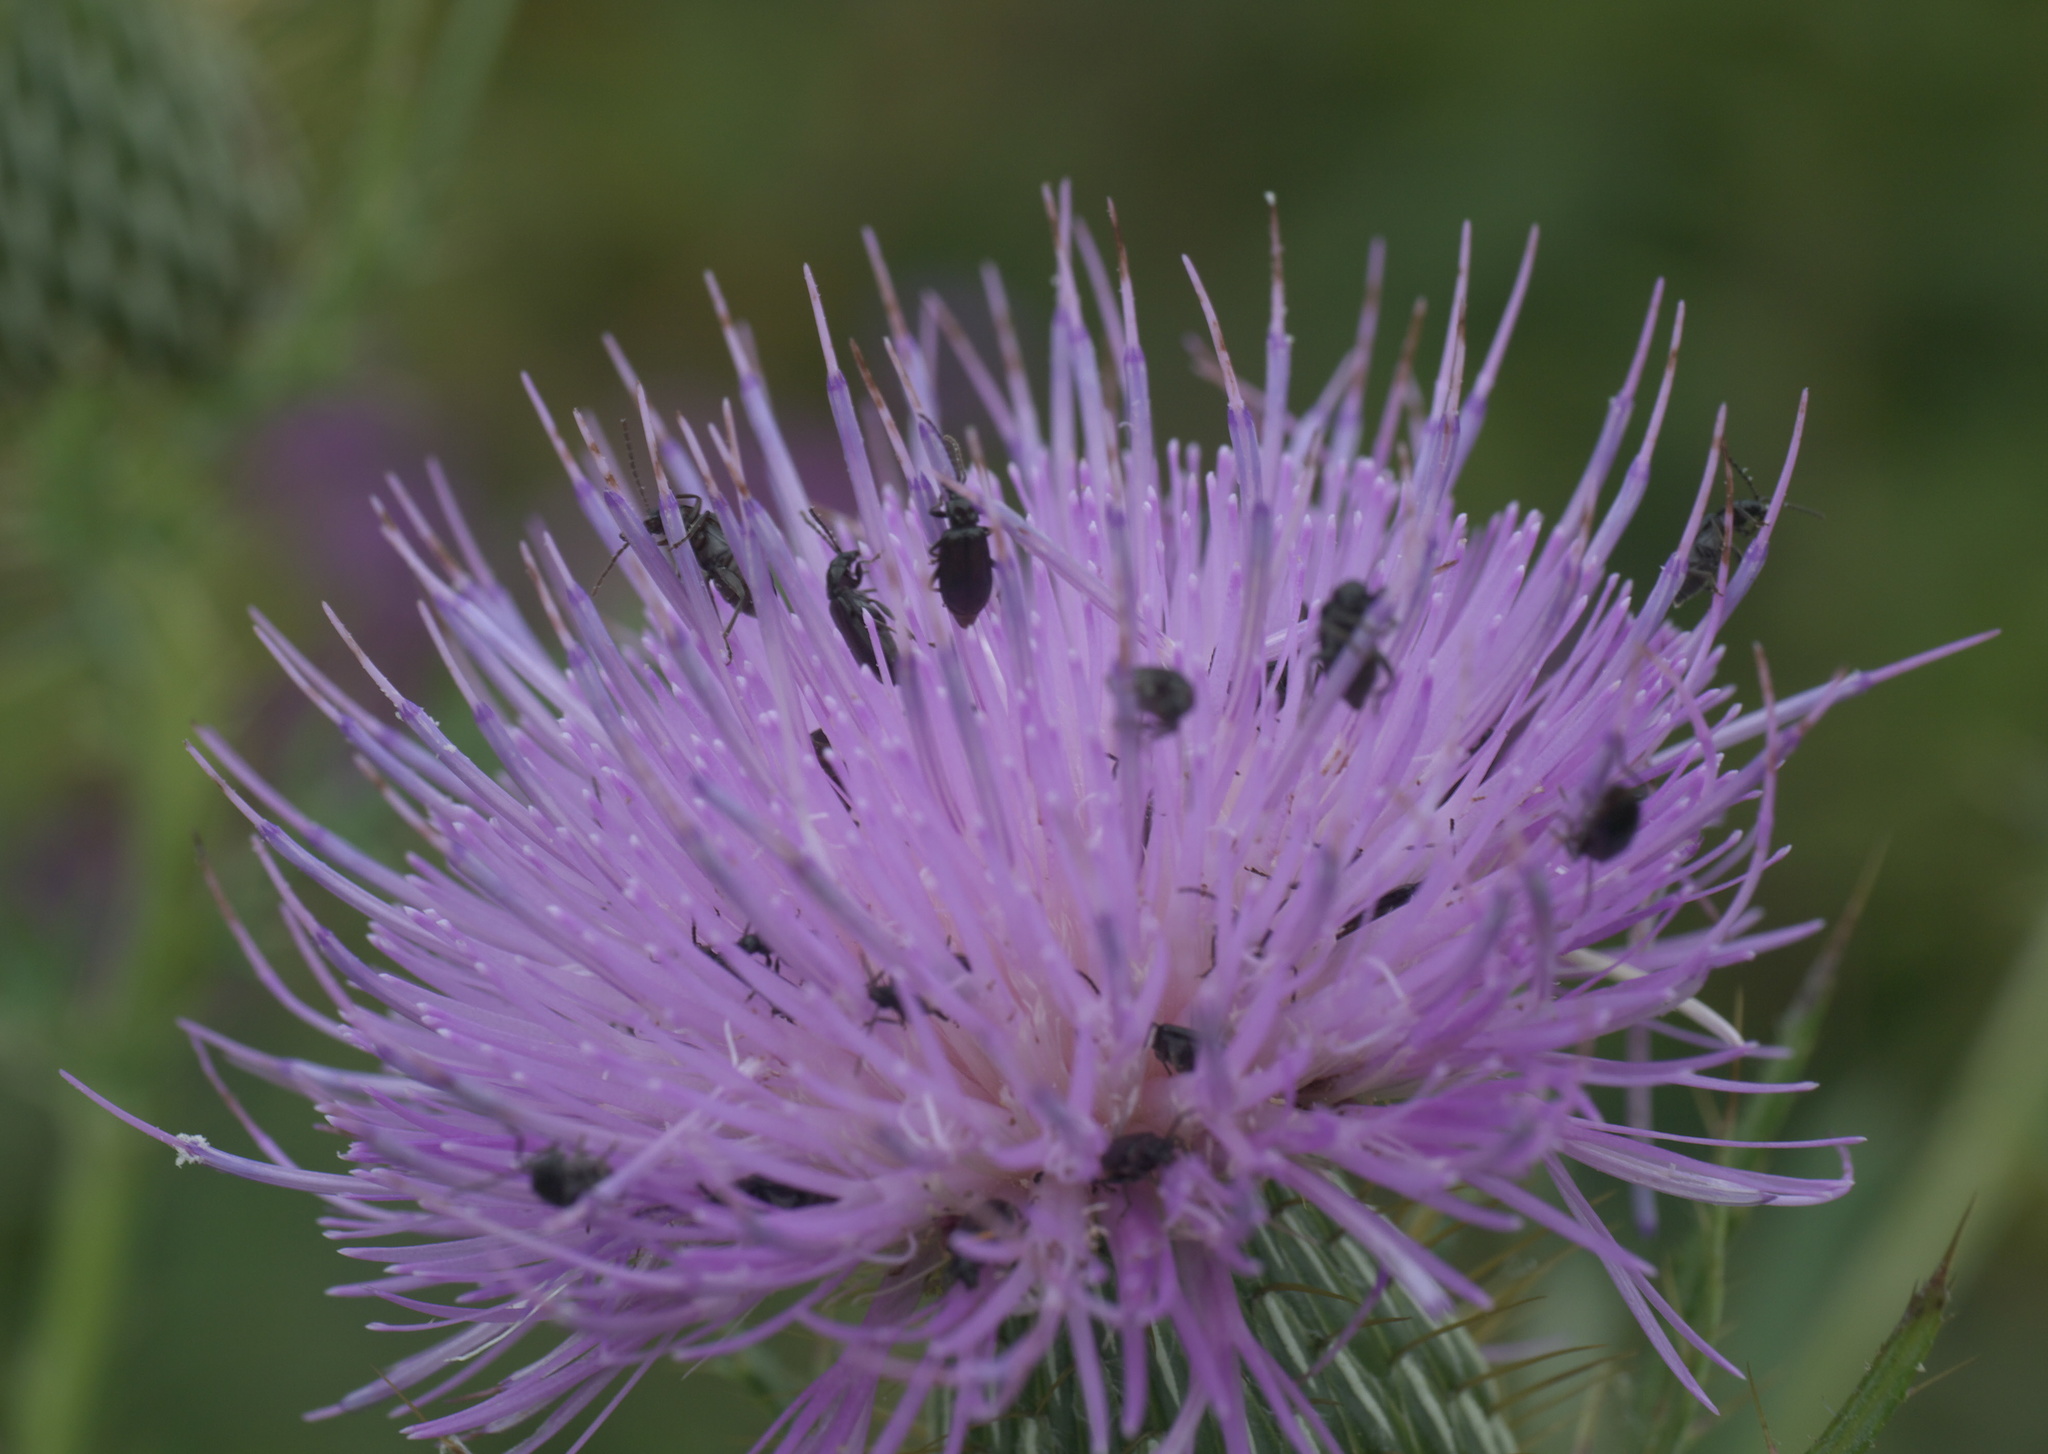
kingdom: Animalia
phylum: Arthropoda
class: Insecta
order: Coleoptera
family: Chrysomelidae
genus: Diabrotica
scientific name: Diabrotica cristata
